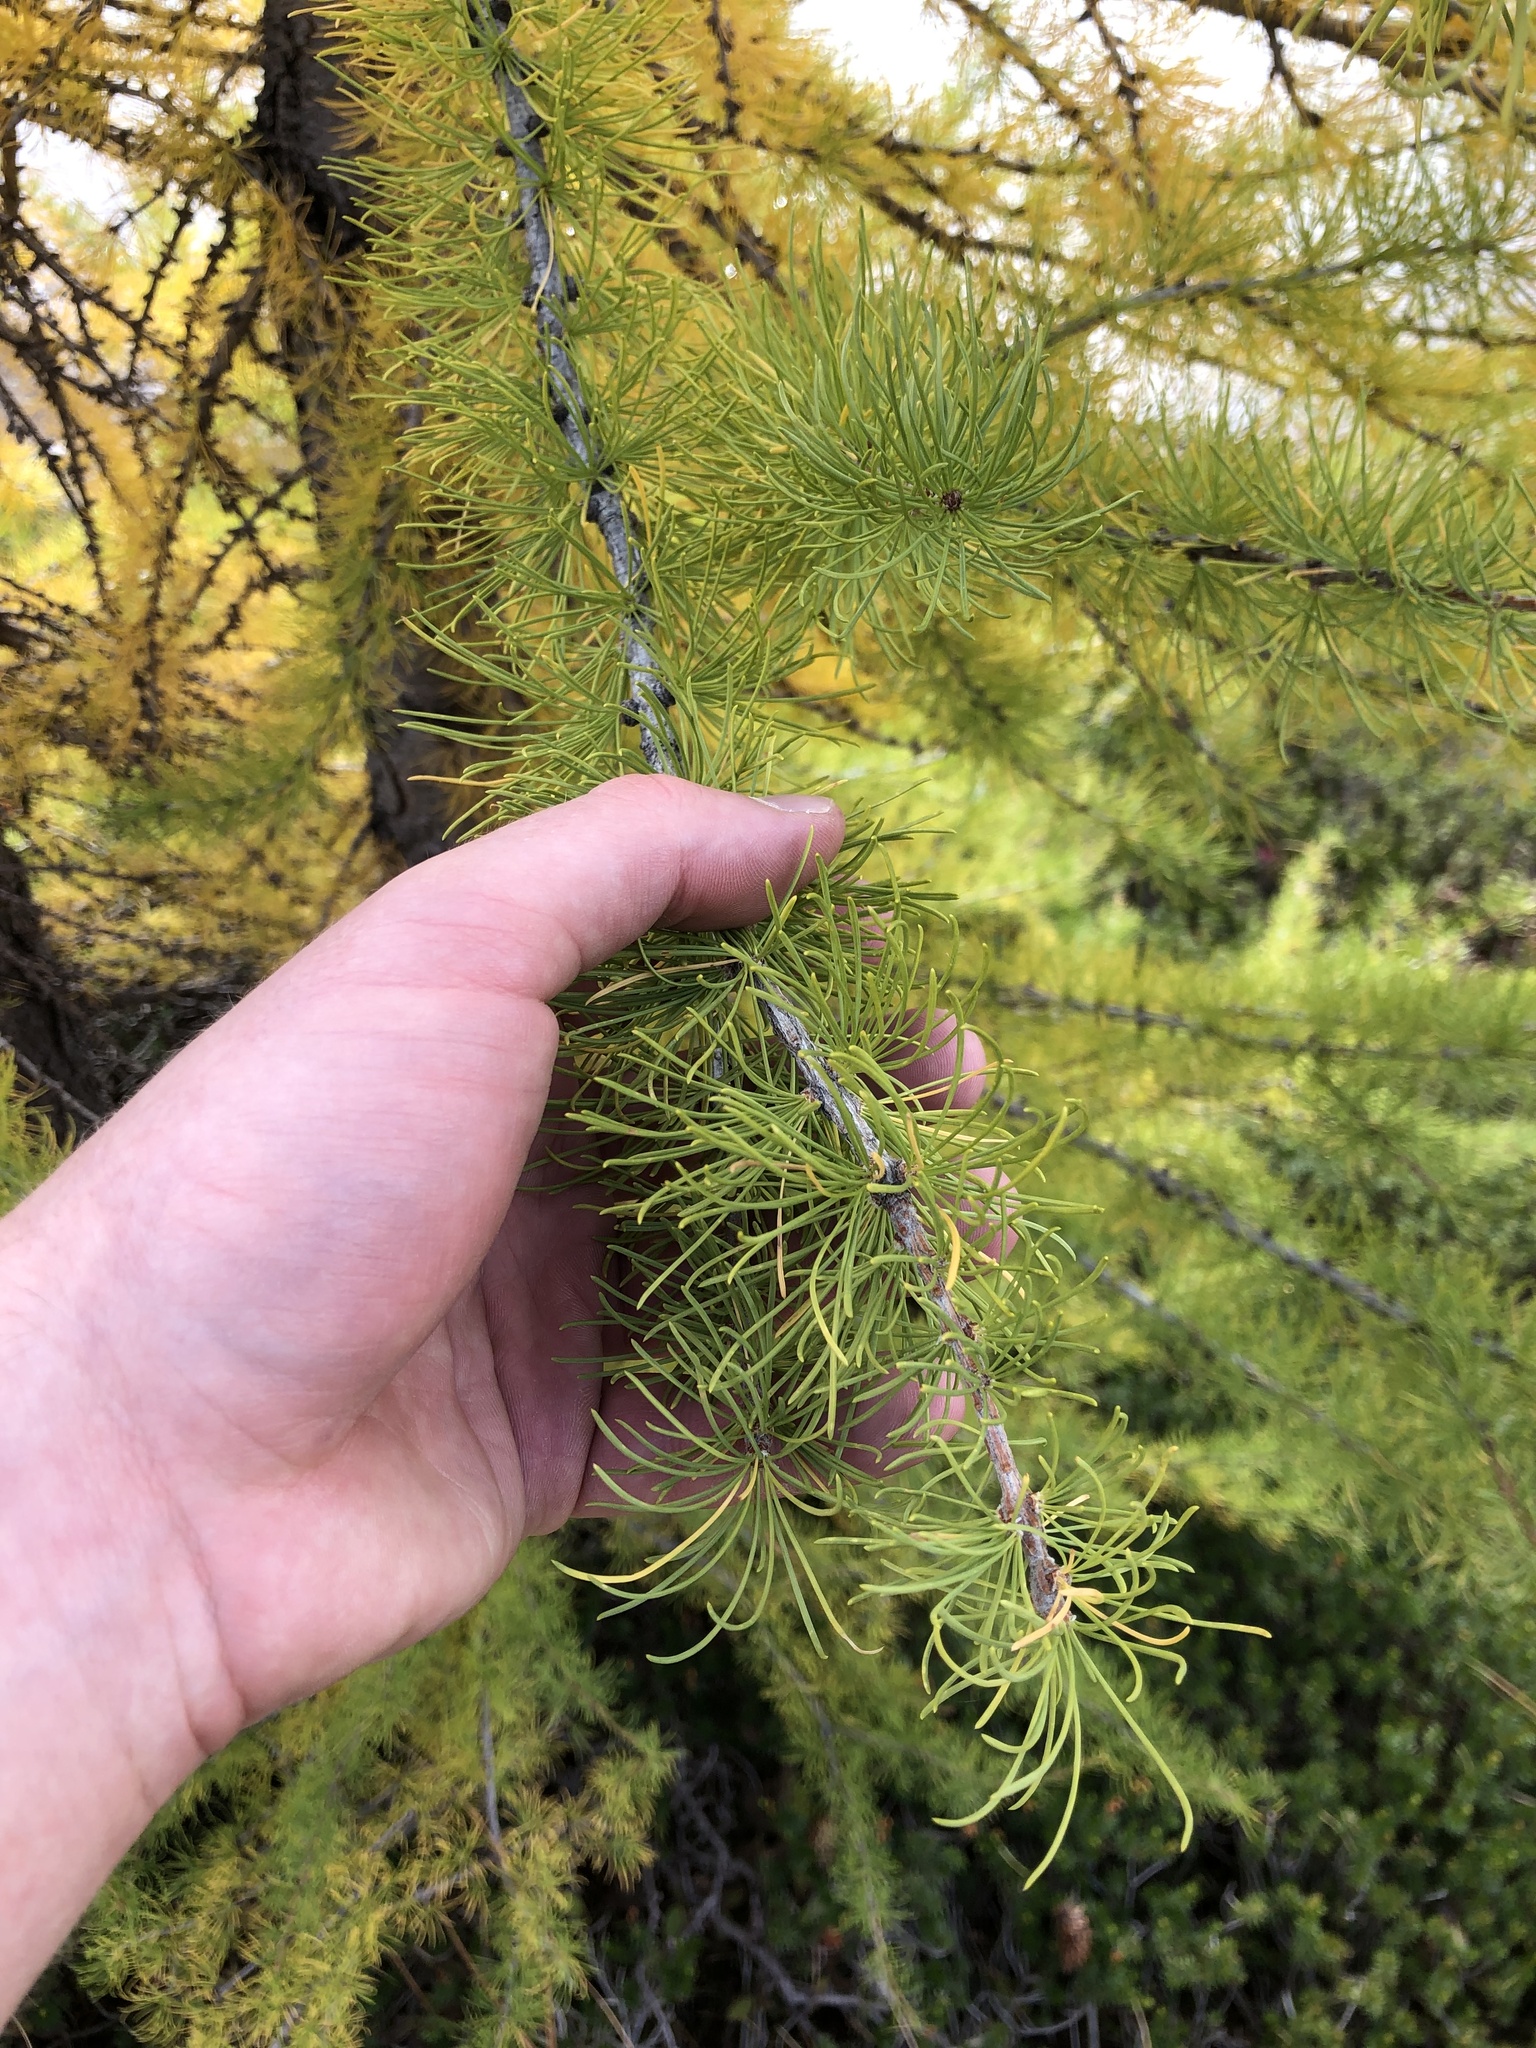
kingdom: Plantae
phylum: Tracheophyta
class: Pinopsida
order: Pinales
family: Pinaceae
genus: Larix
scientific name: Larix lyallii
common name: Alpine larch
